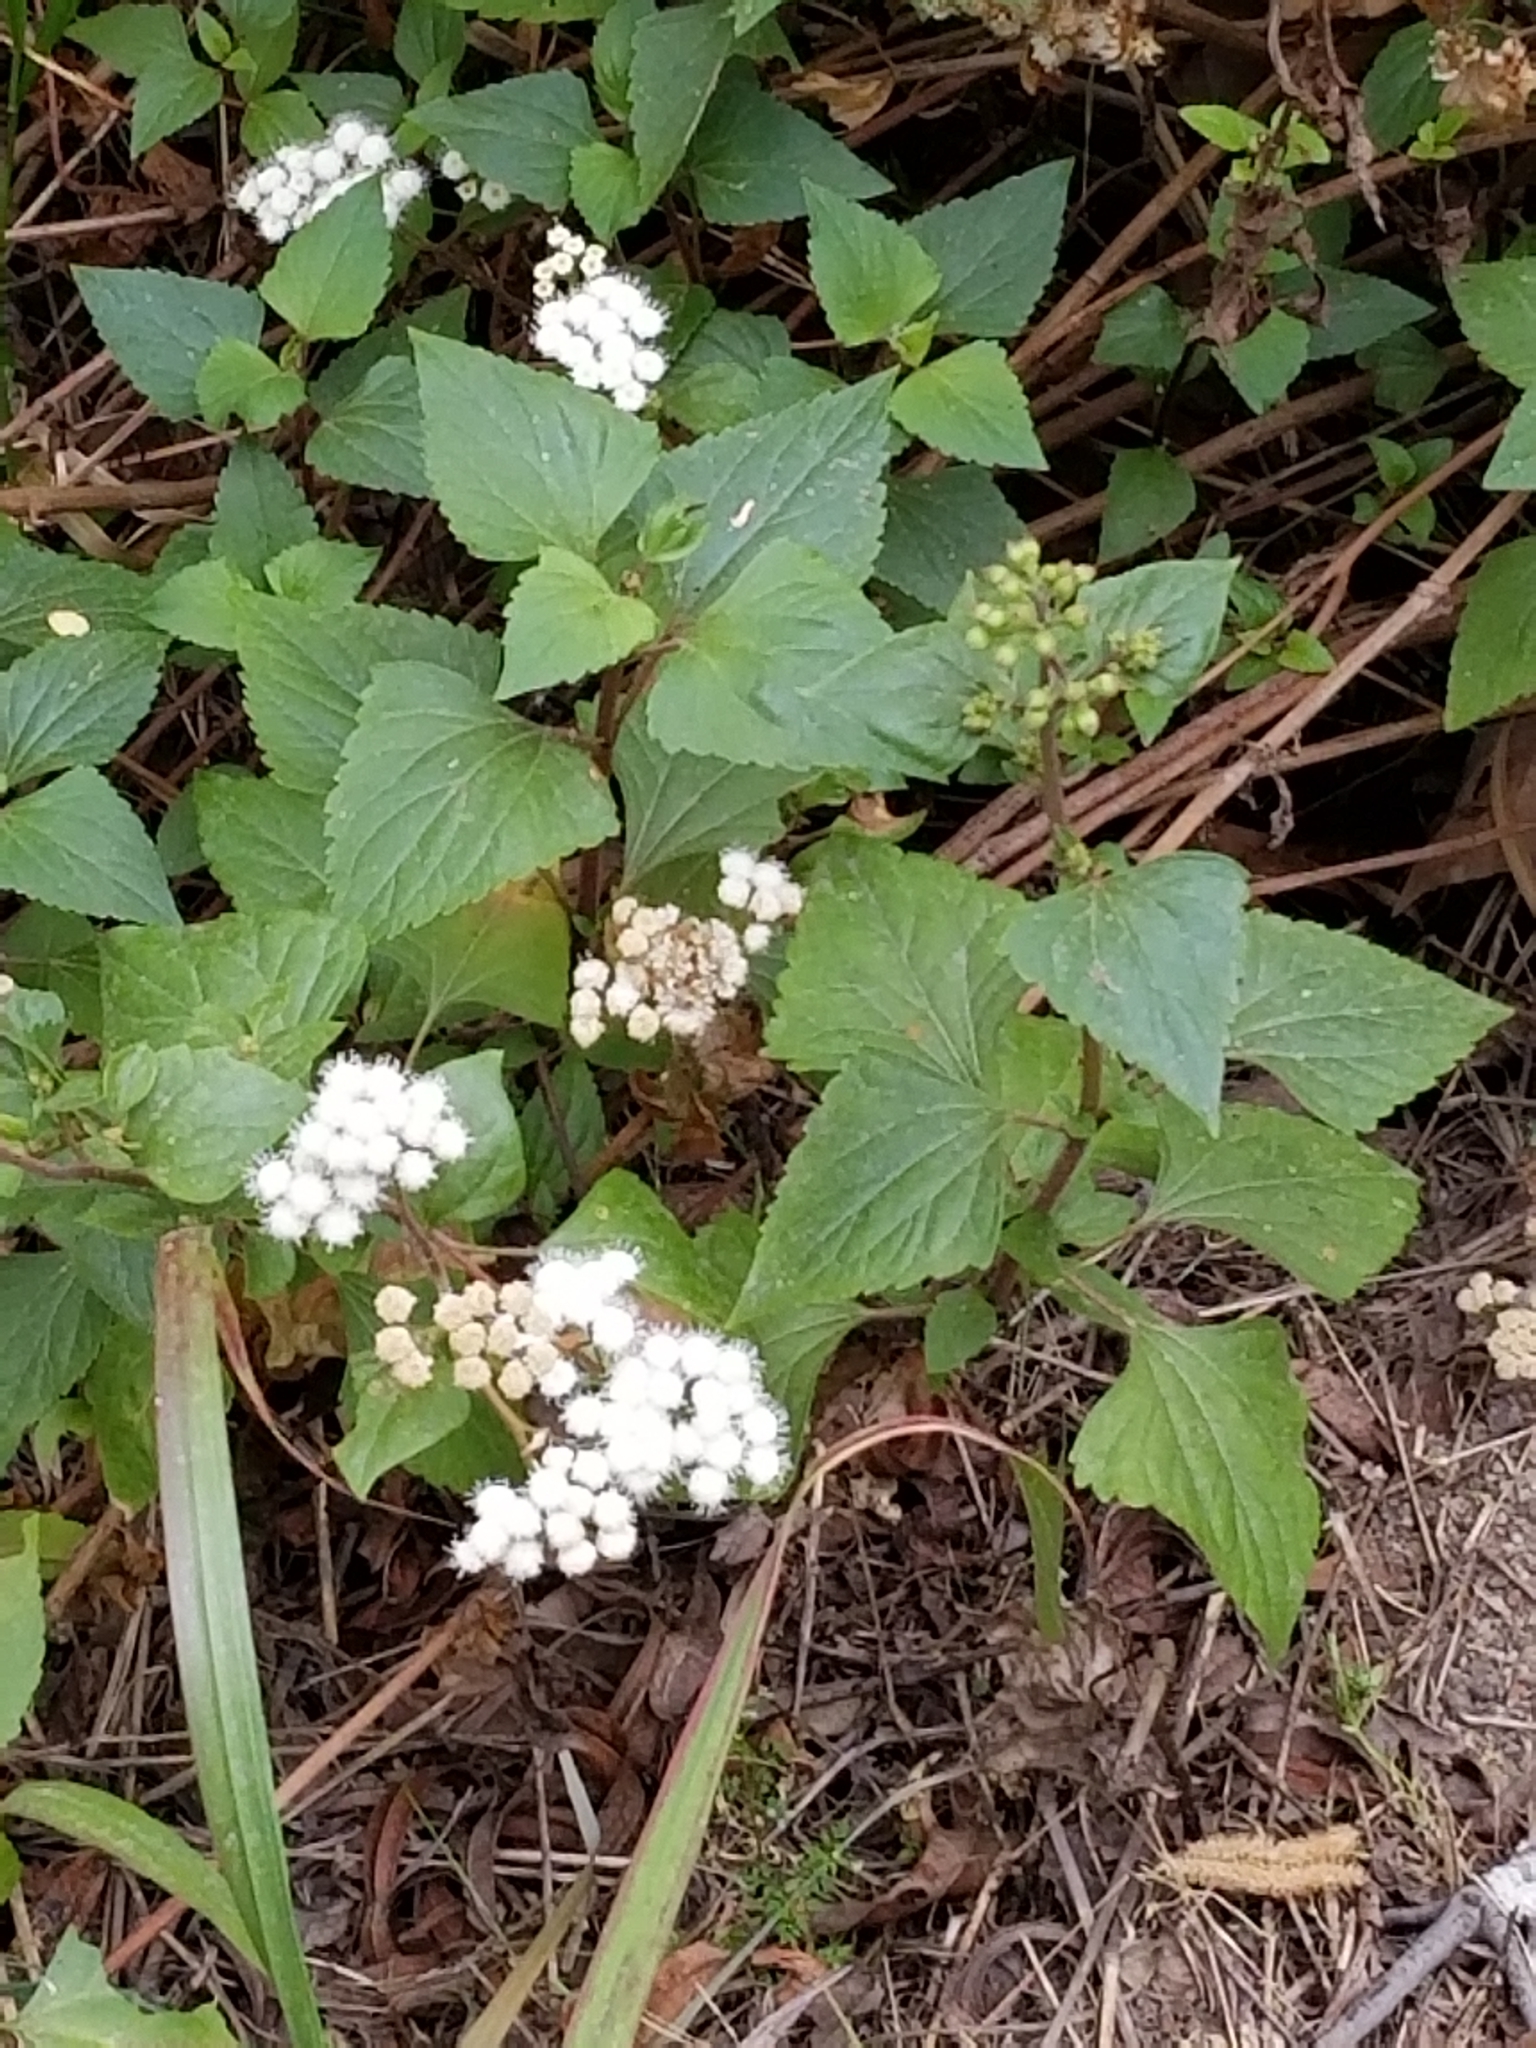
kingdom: Plantae
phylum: Tracheophyta
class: Magnoliopsida
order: Asterales
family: Asteraceae
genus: Ageratina
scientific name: Ageratina adenophora
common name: Sticky snakeroot
